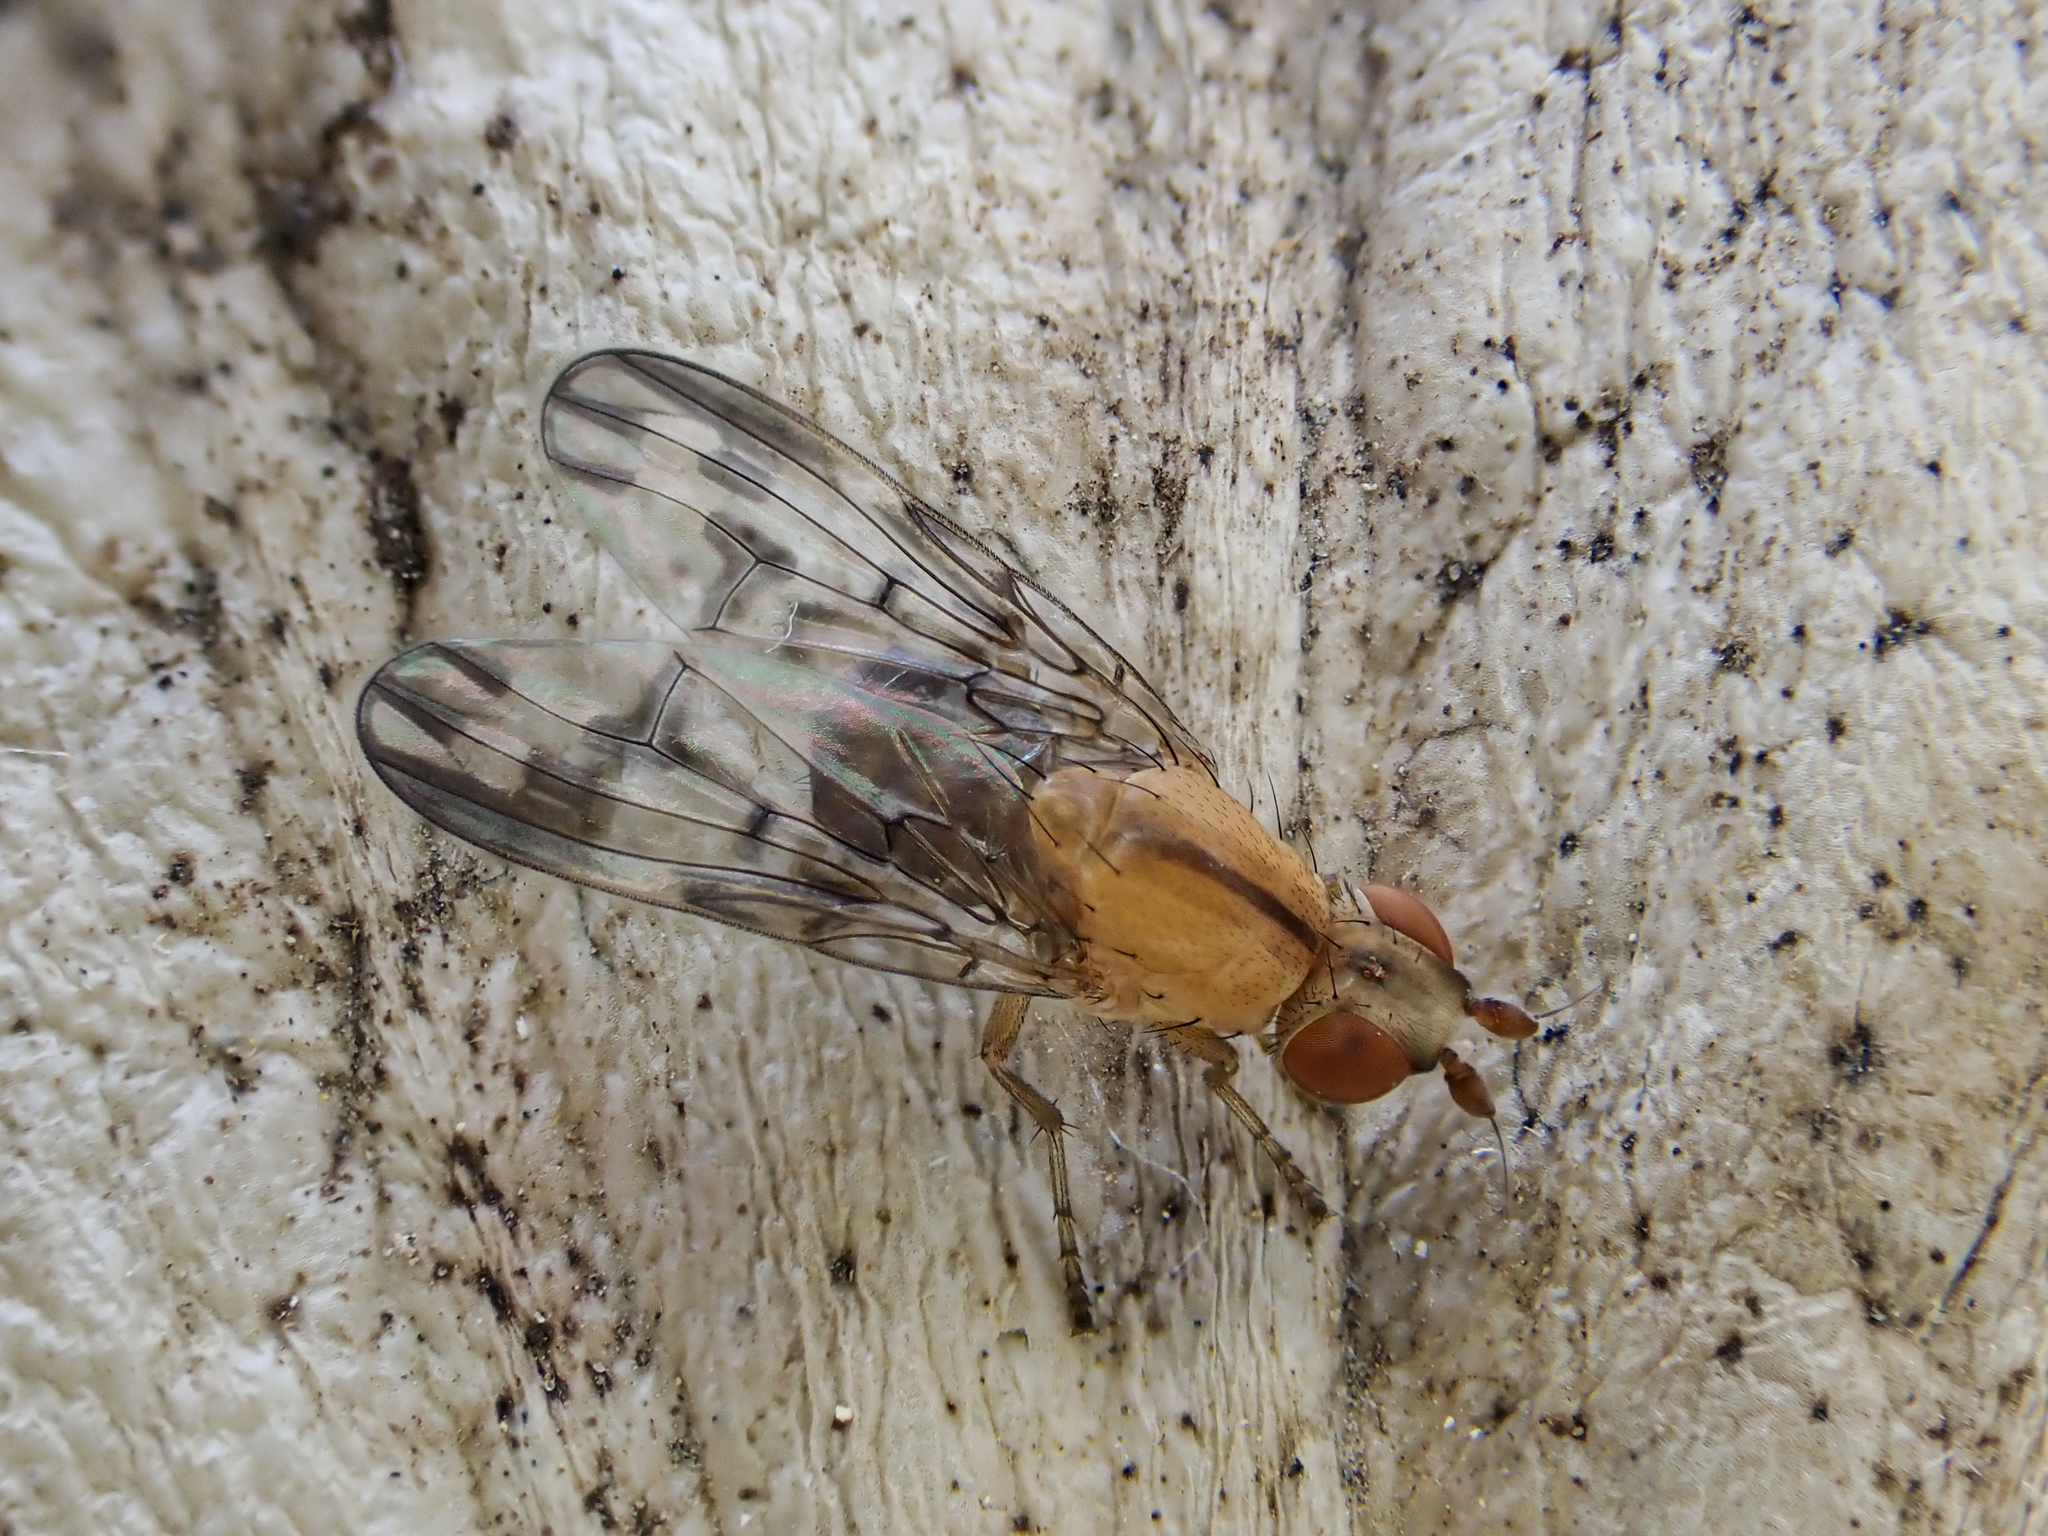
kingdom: Animalia
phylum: Arthropoda
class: Insecta
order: Diptera
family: Sciomyzidae
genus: Prosochaeta
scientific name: Prosochaeta prima
